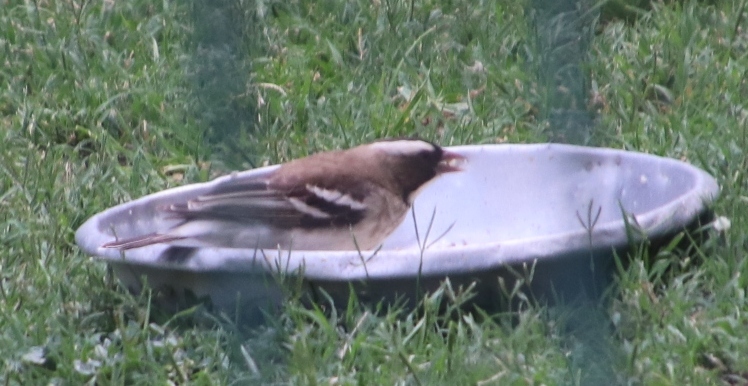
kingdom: Animalia
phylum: Chordata
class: Aves
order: Passeriformes
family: Passeridae
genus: Plocepasser
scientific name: Plocepasser mahali
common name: White-browed sparrow-weaver
